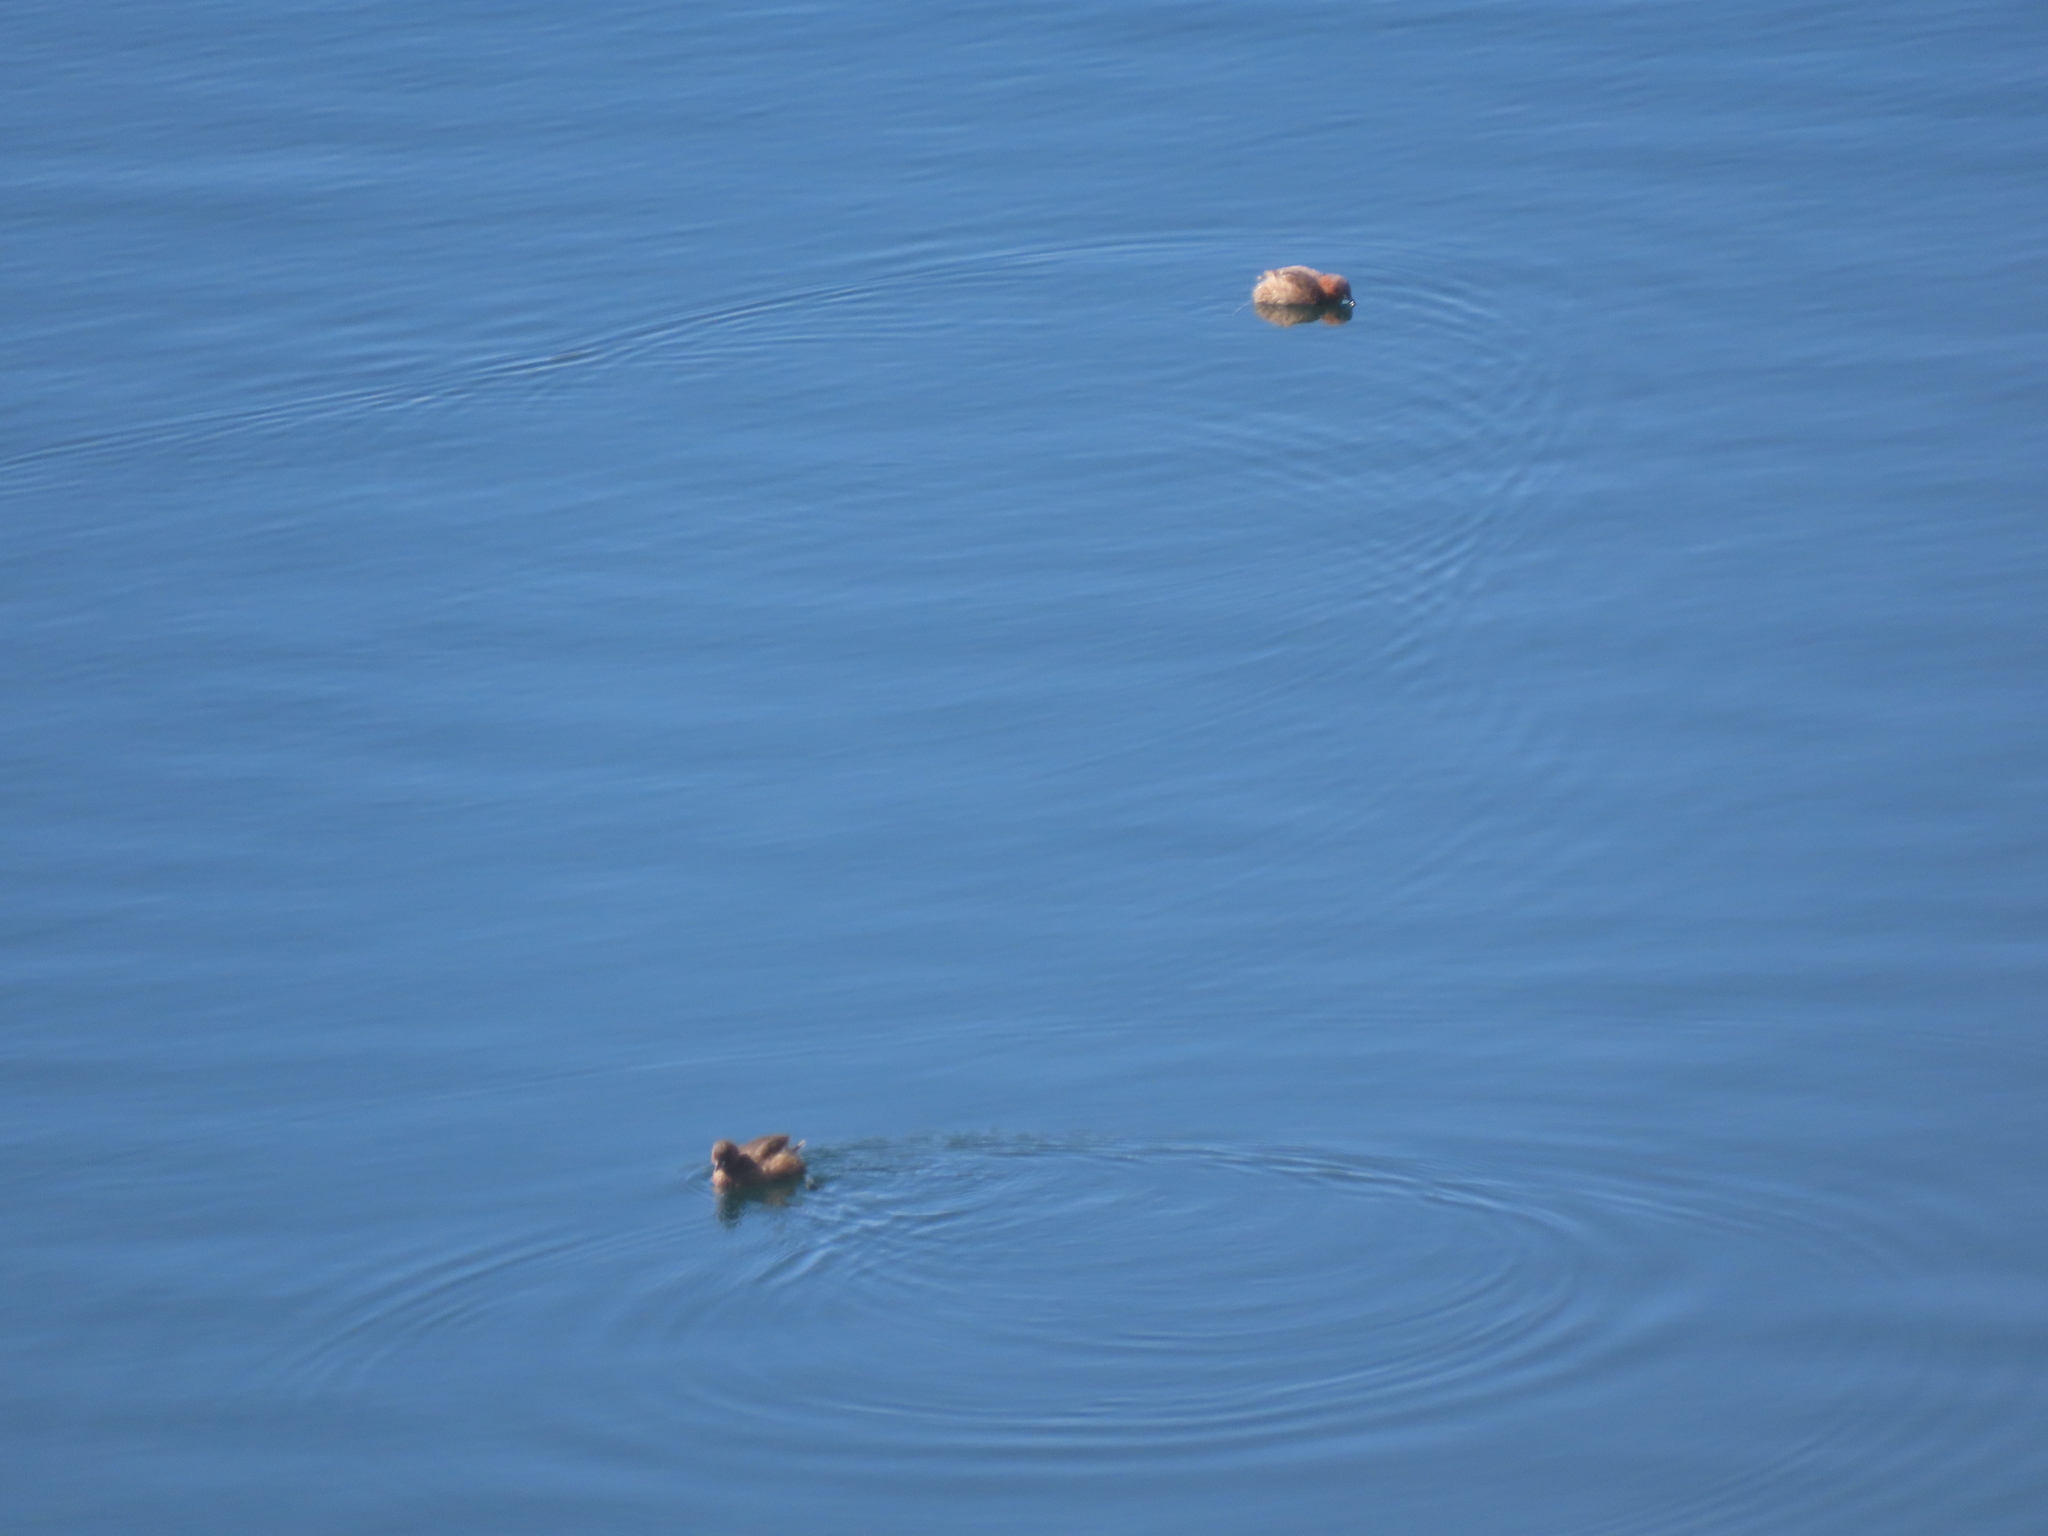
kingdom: Animalia
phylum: Chordata
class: Aves
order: Podicipediformes
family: Podicipedidae
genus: Tachybaptus
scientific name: Tachybaptus ruficollis
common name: Little grebe
